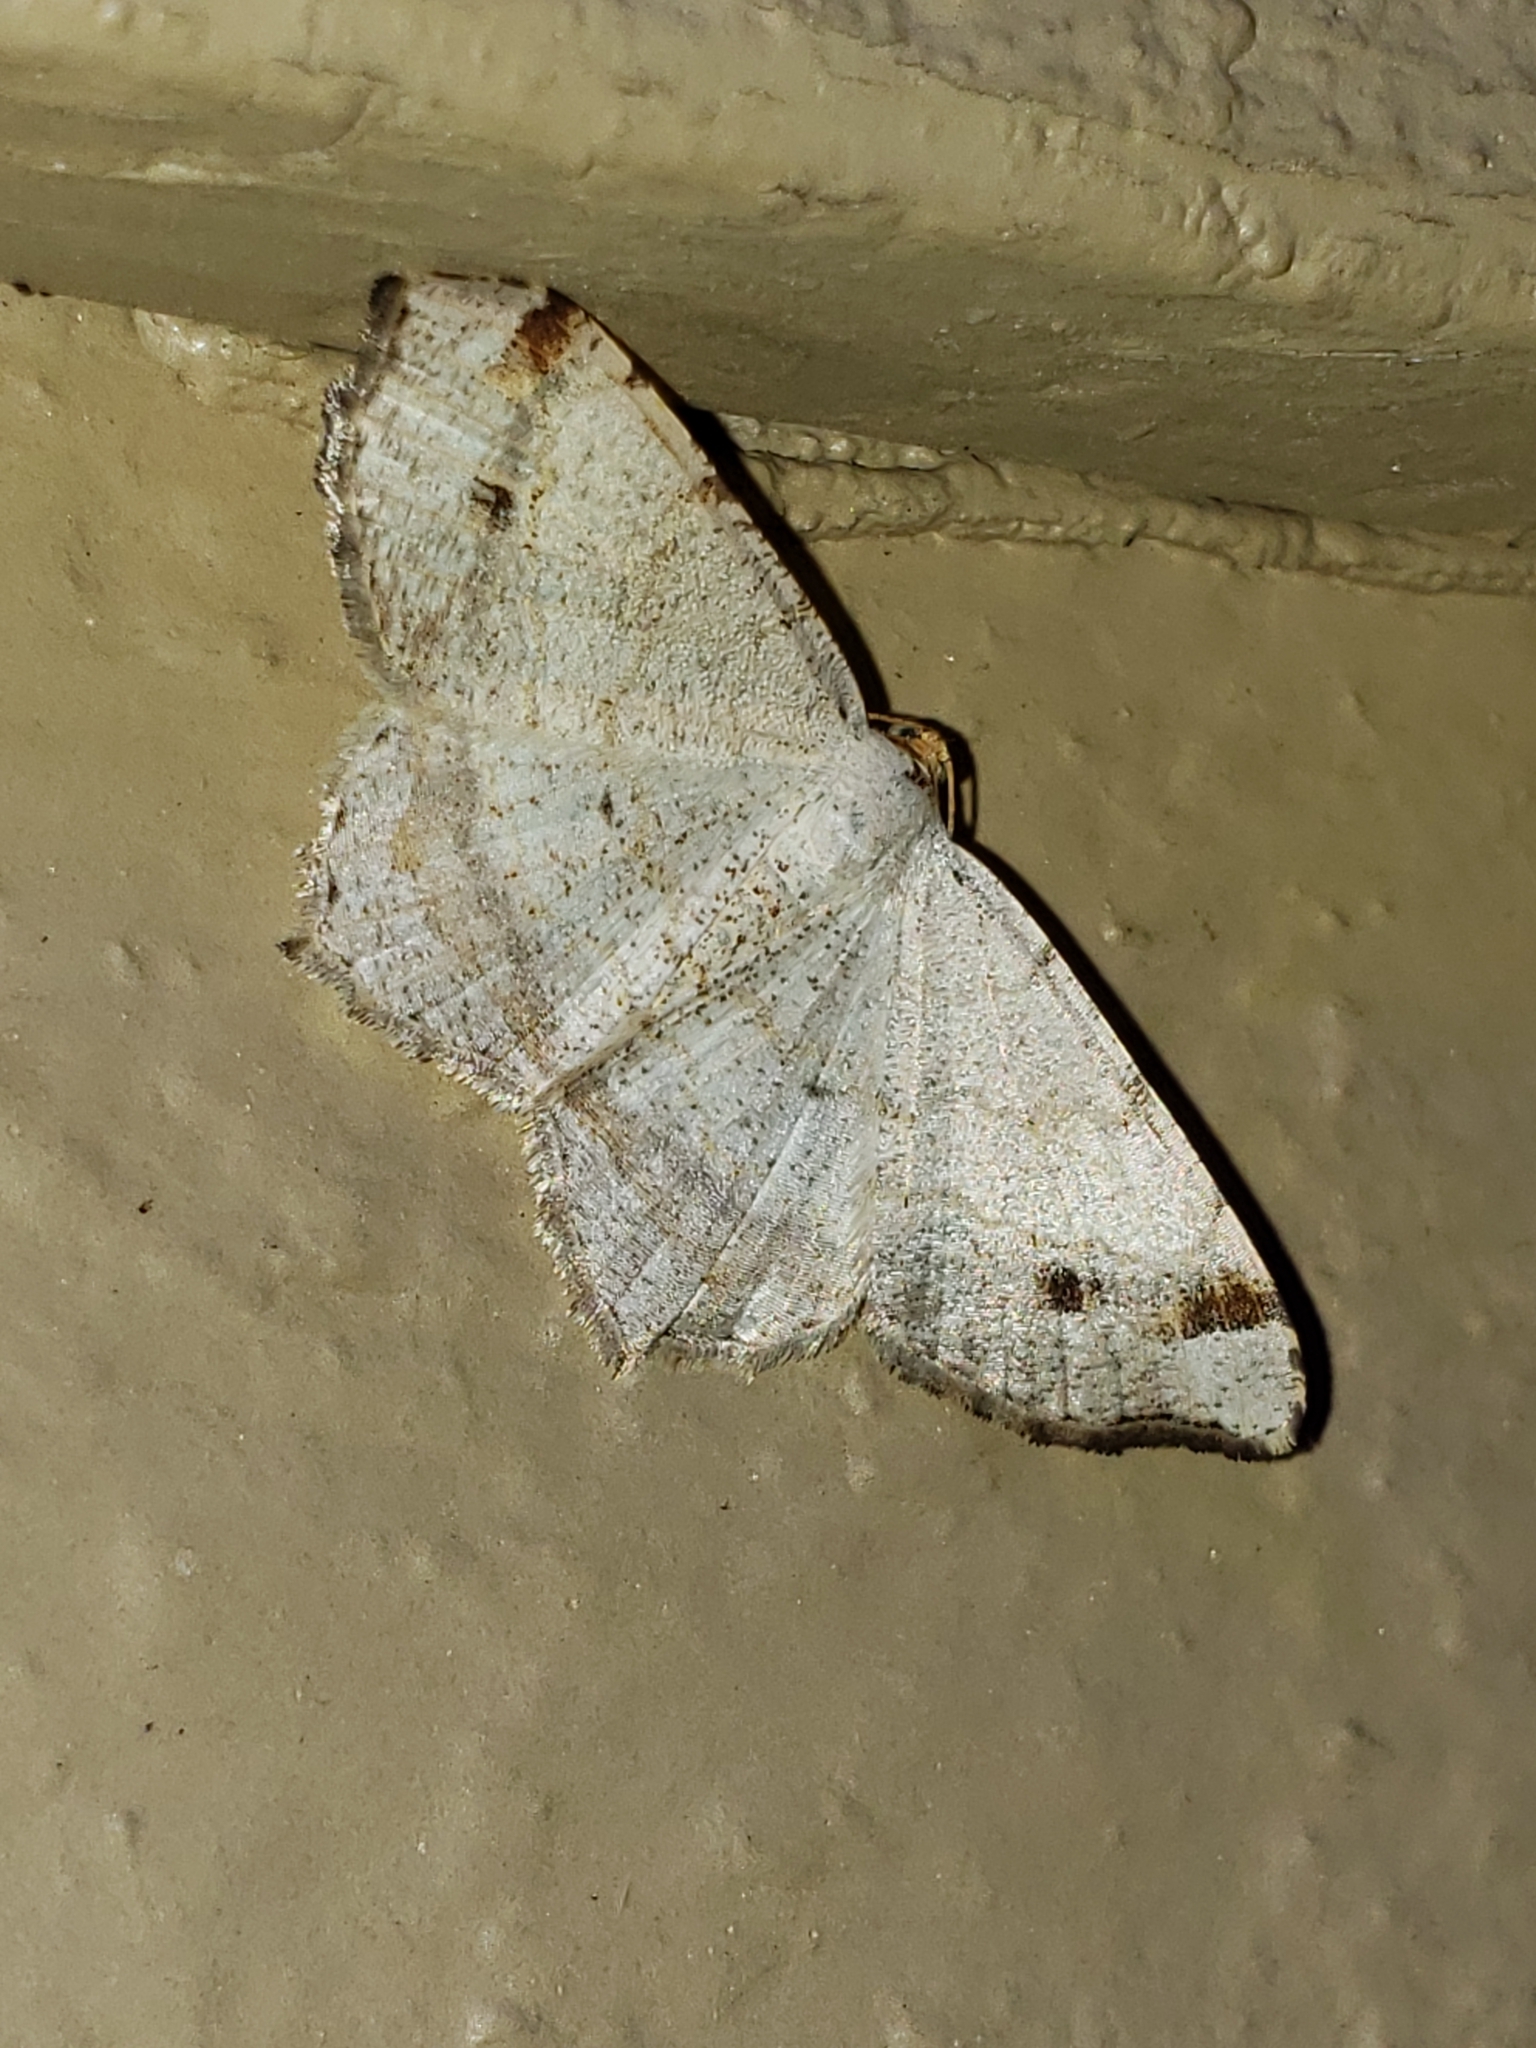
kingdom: Animalia
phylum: Arthropoda
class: Insecta
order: Lepidoptera
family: Geometridae
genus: Macaria
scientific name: Macaria bisignata
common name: Red-headed inchworm
